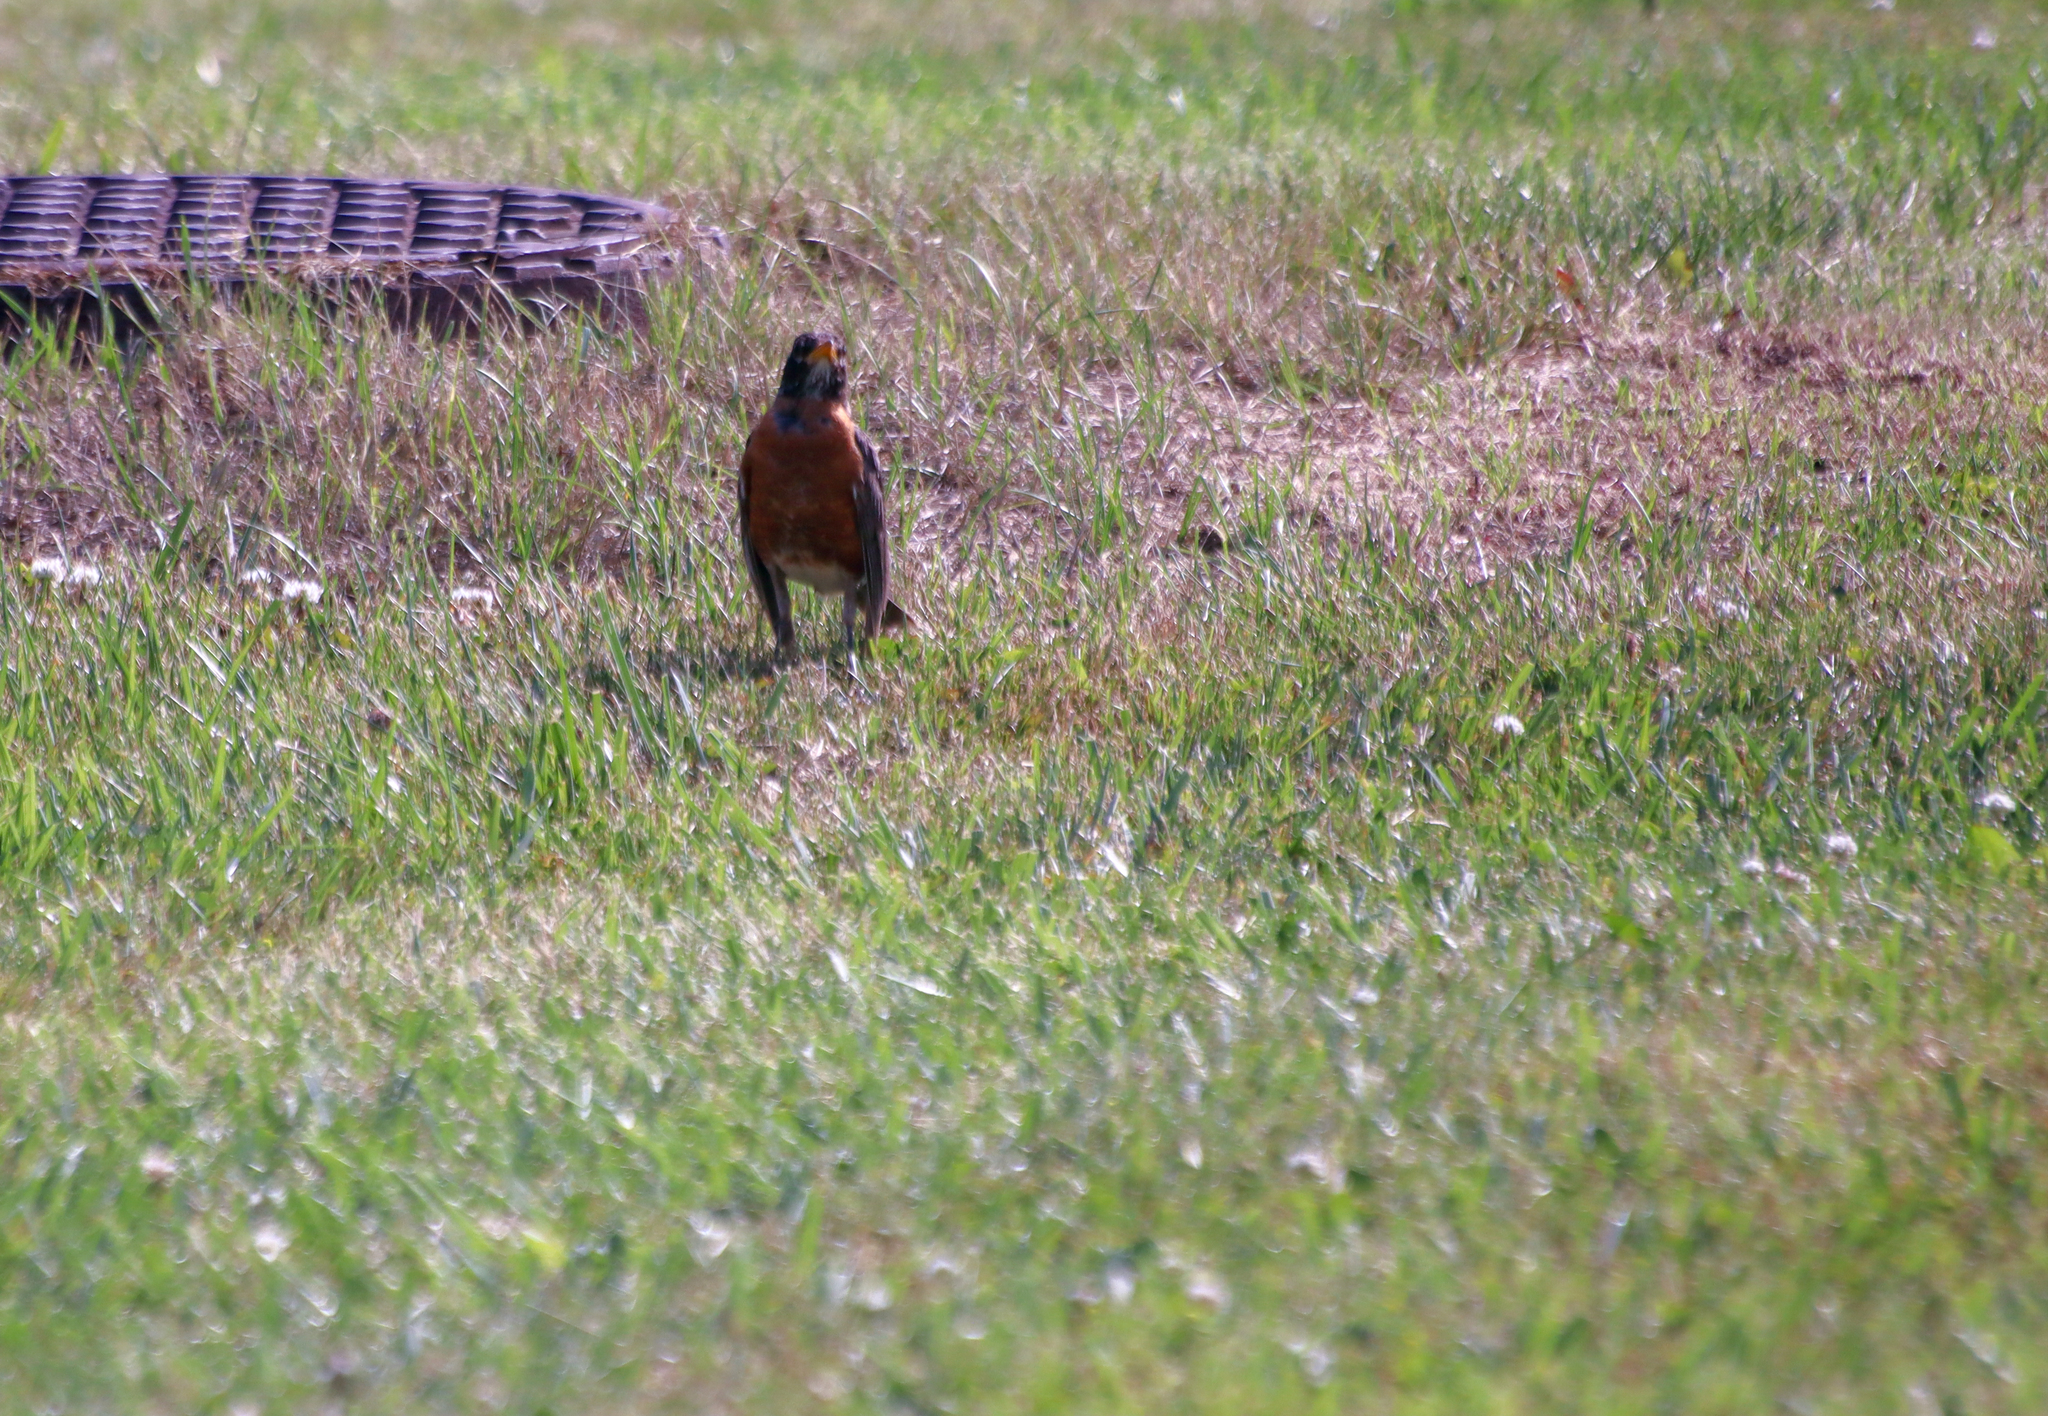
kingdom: Animalia
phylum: Chordata
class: Aves
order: Passeriformes
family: Turdidae
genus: Turdus
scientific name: Turdus migratorius
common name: American robin
